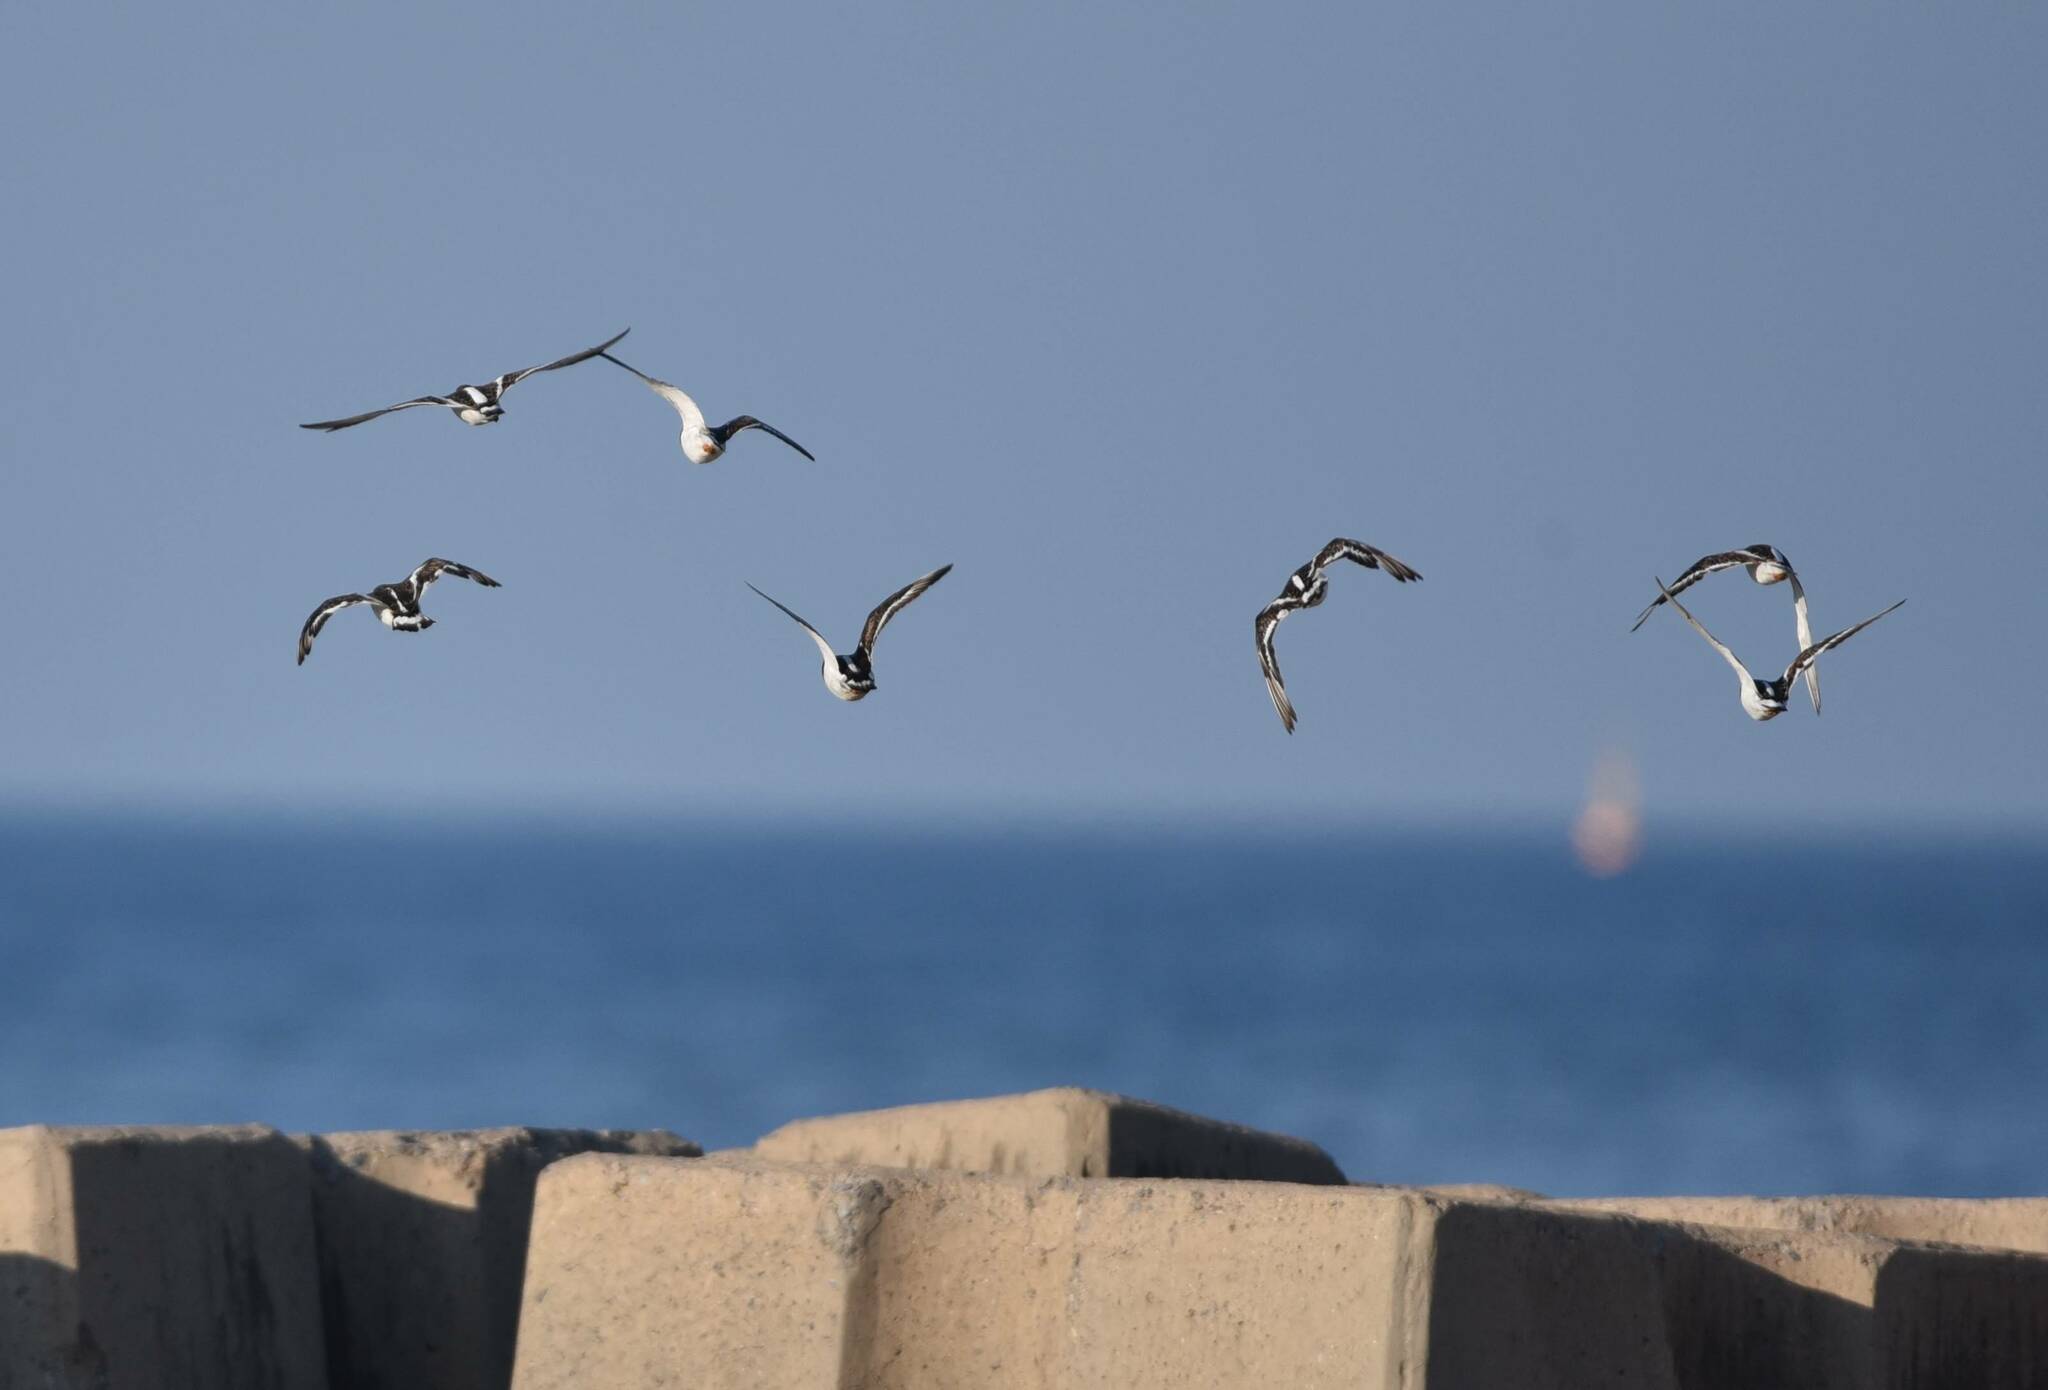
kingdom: Animalia
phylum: Chordata
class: Aves
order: Charadriiformes
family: Scolopacidae
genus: Arenaria
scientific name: Arenaria interpres
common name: Ruddy turnstone
